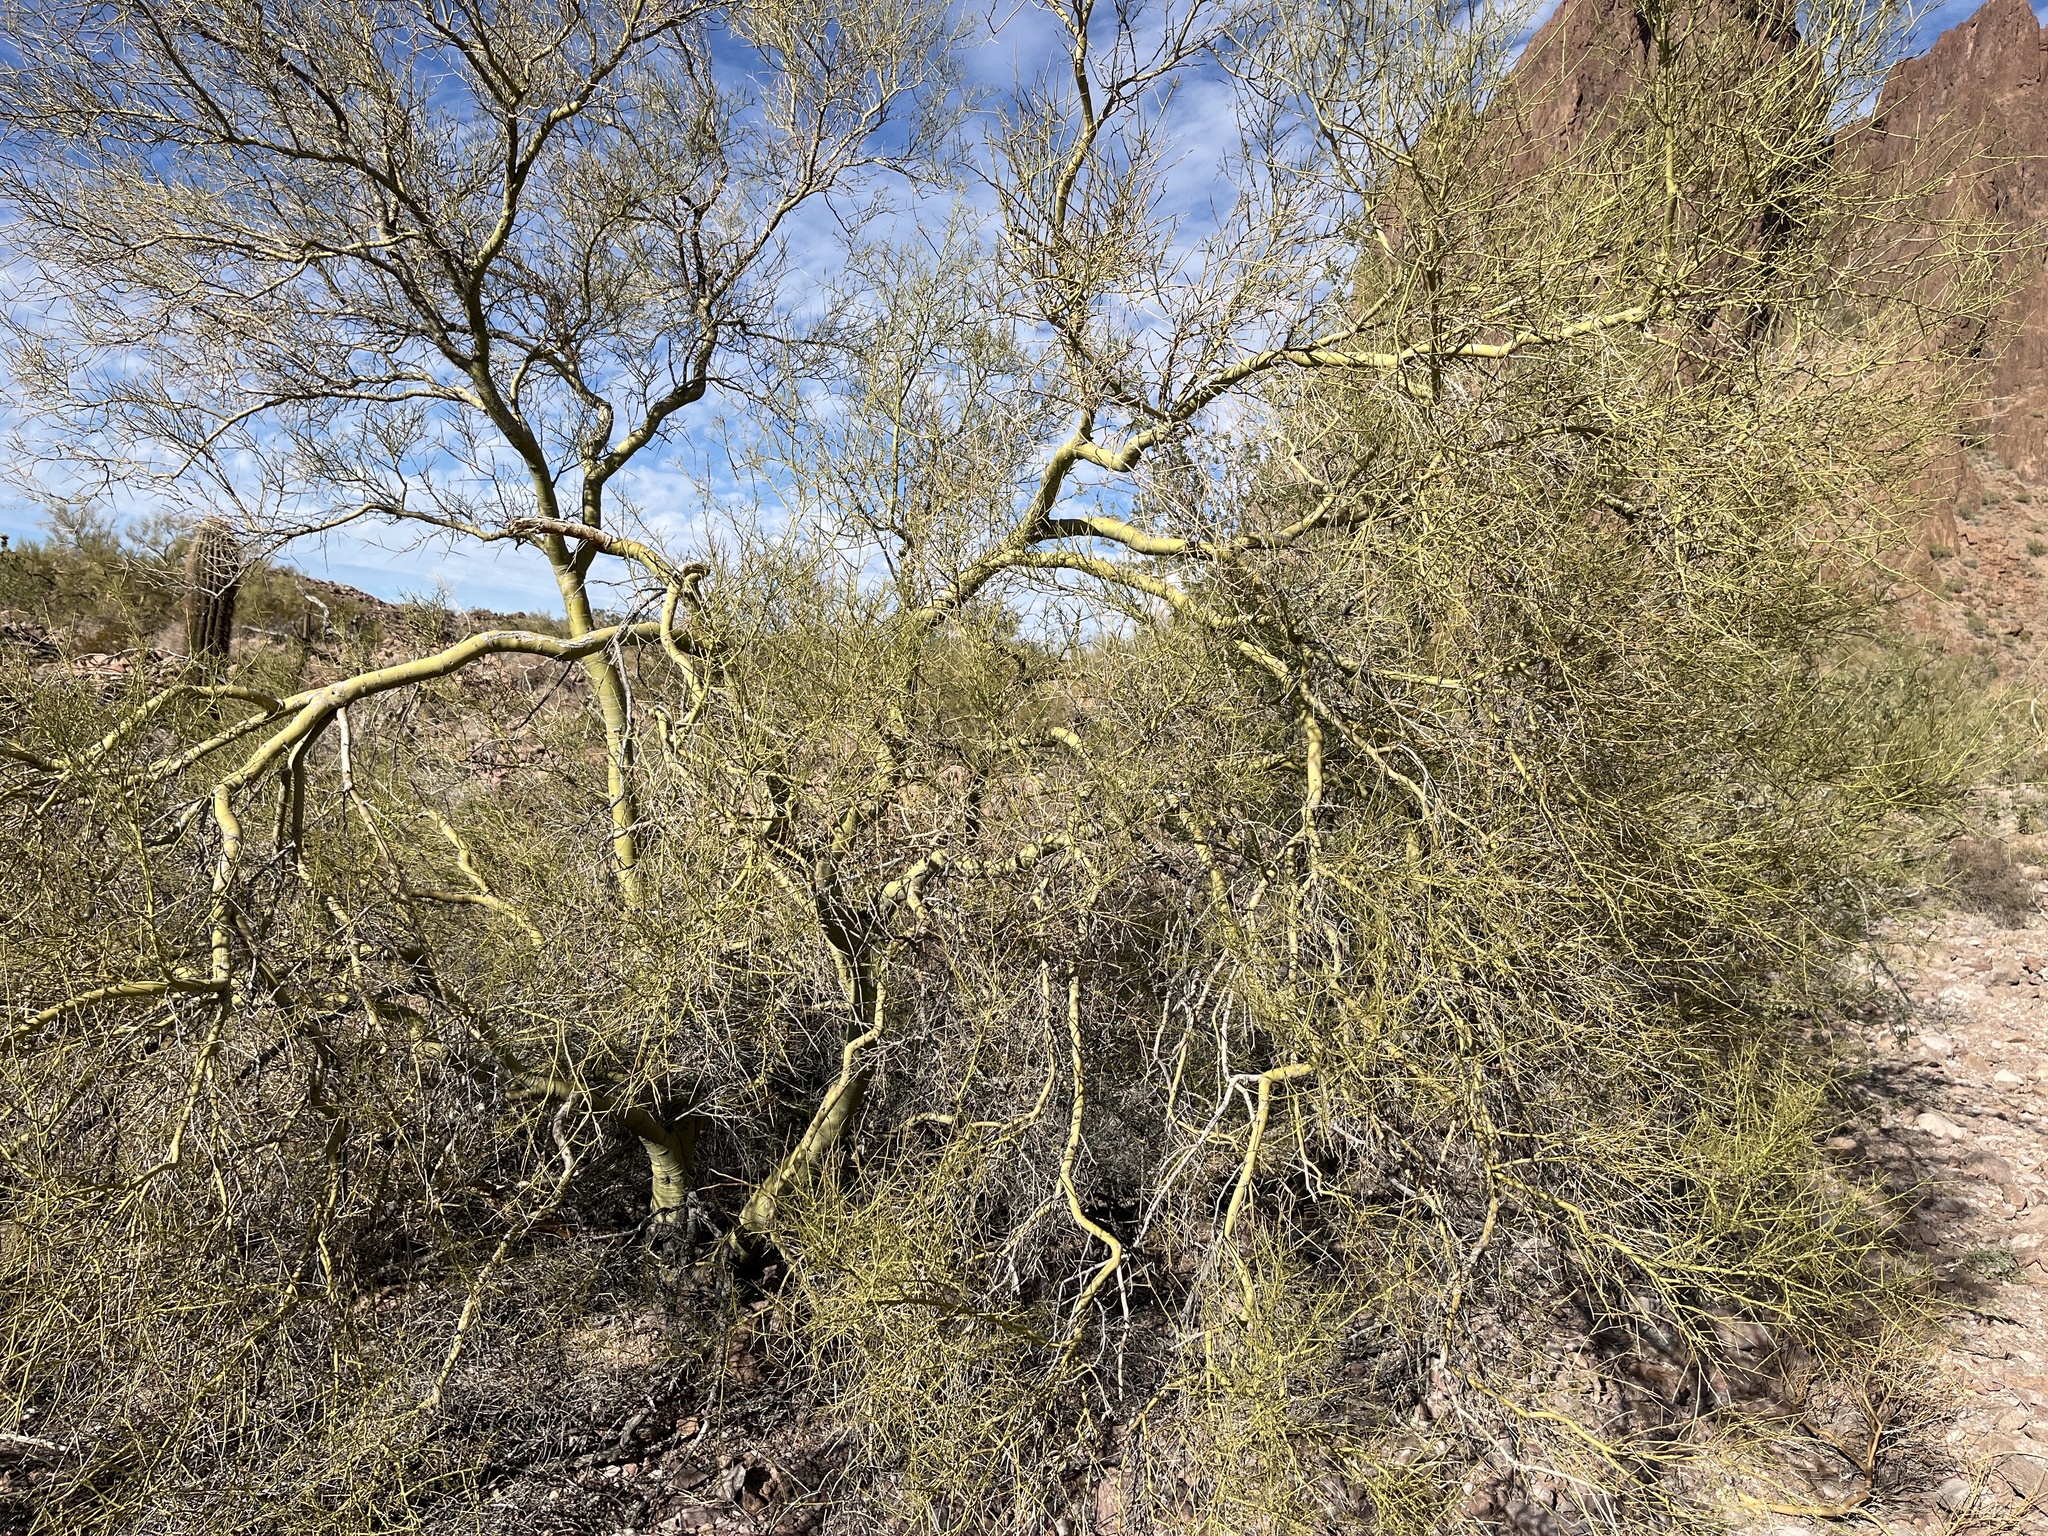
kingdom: Plantae
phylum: Tracheophyta
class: Magnoliopsida
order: Fabales
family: Fabaceae
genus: Parkinsonia
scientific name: Parkinsonia microphylla
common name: Yellow paloverde
